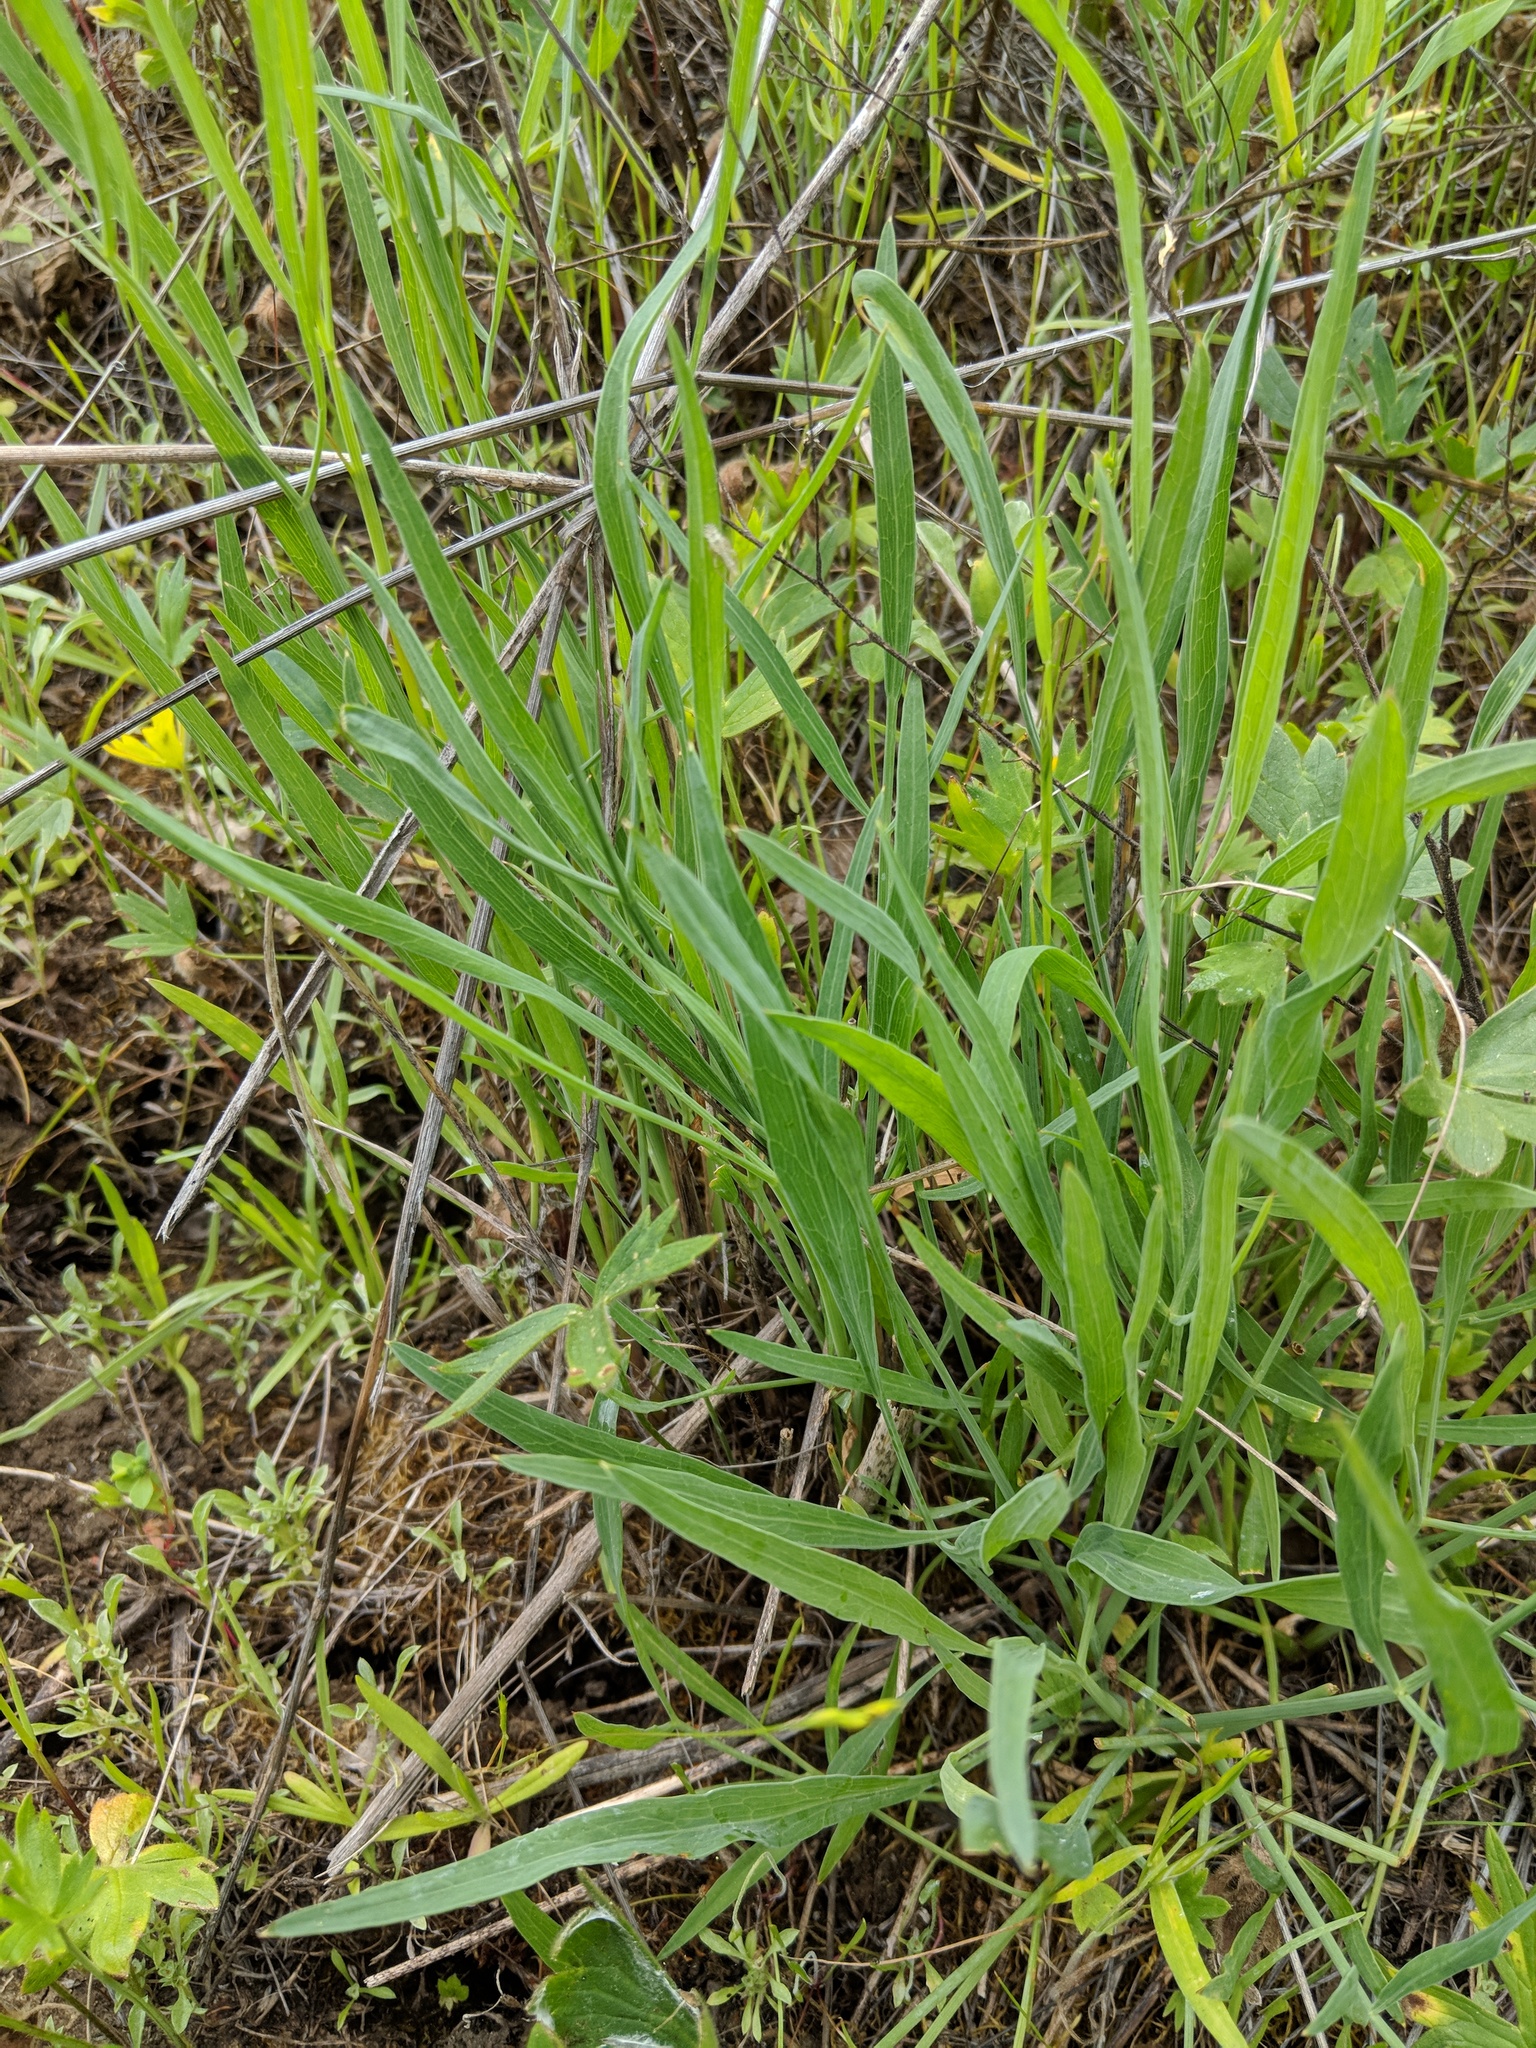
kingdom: Plantae
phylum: Tracheophyta
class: Magnoliopsida
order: Lamiales
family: Plantaginaceae
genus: Plantago
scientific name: Plantago lanceolata
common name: Ribwort plantain
